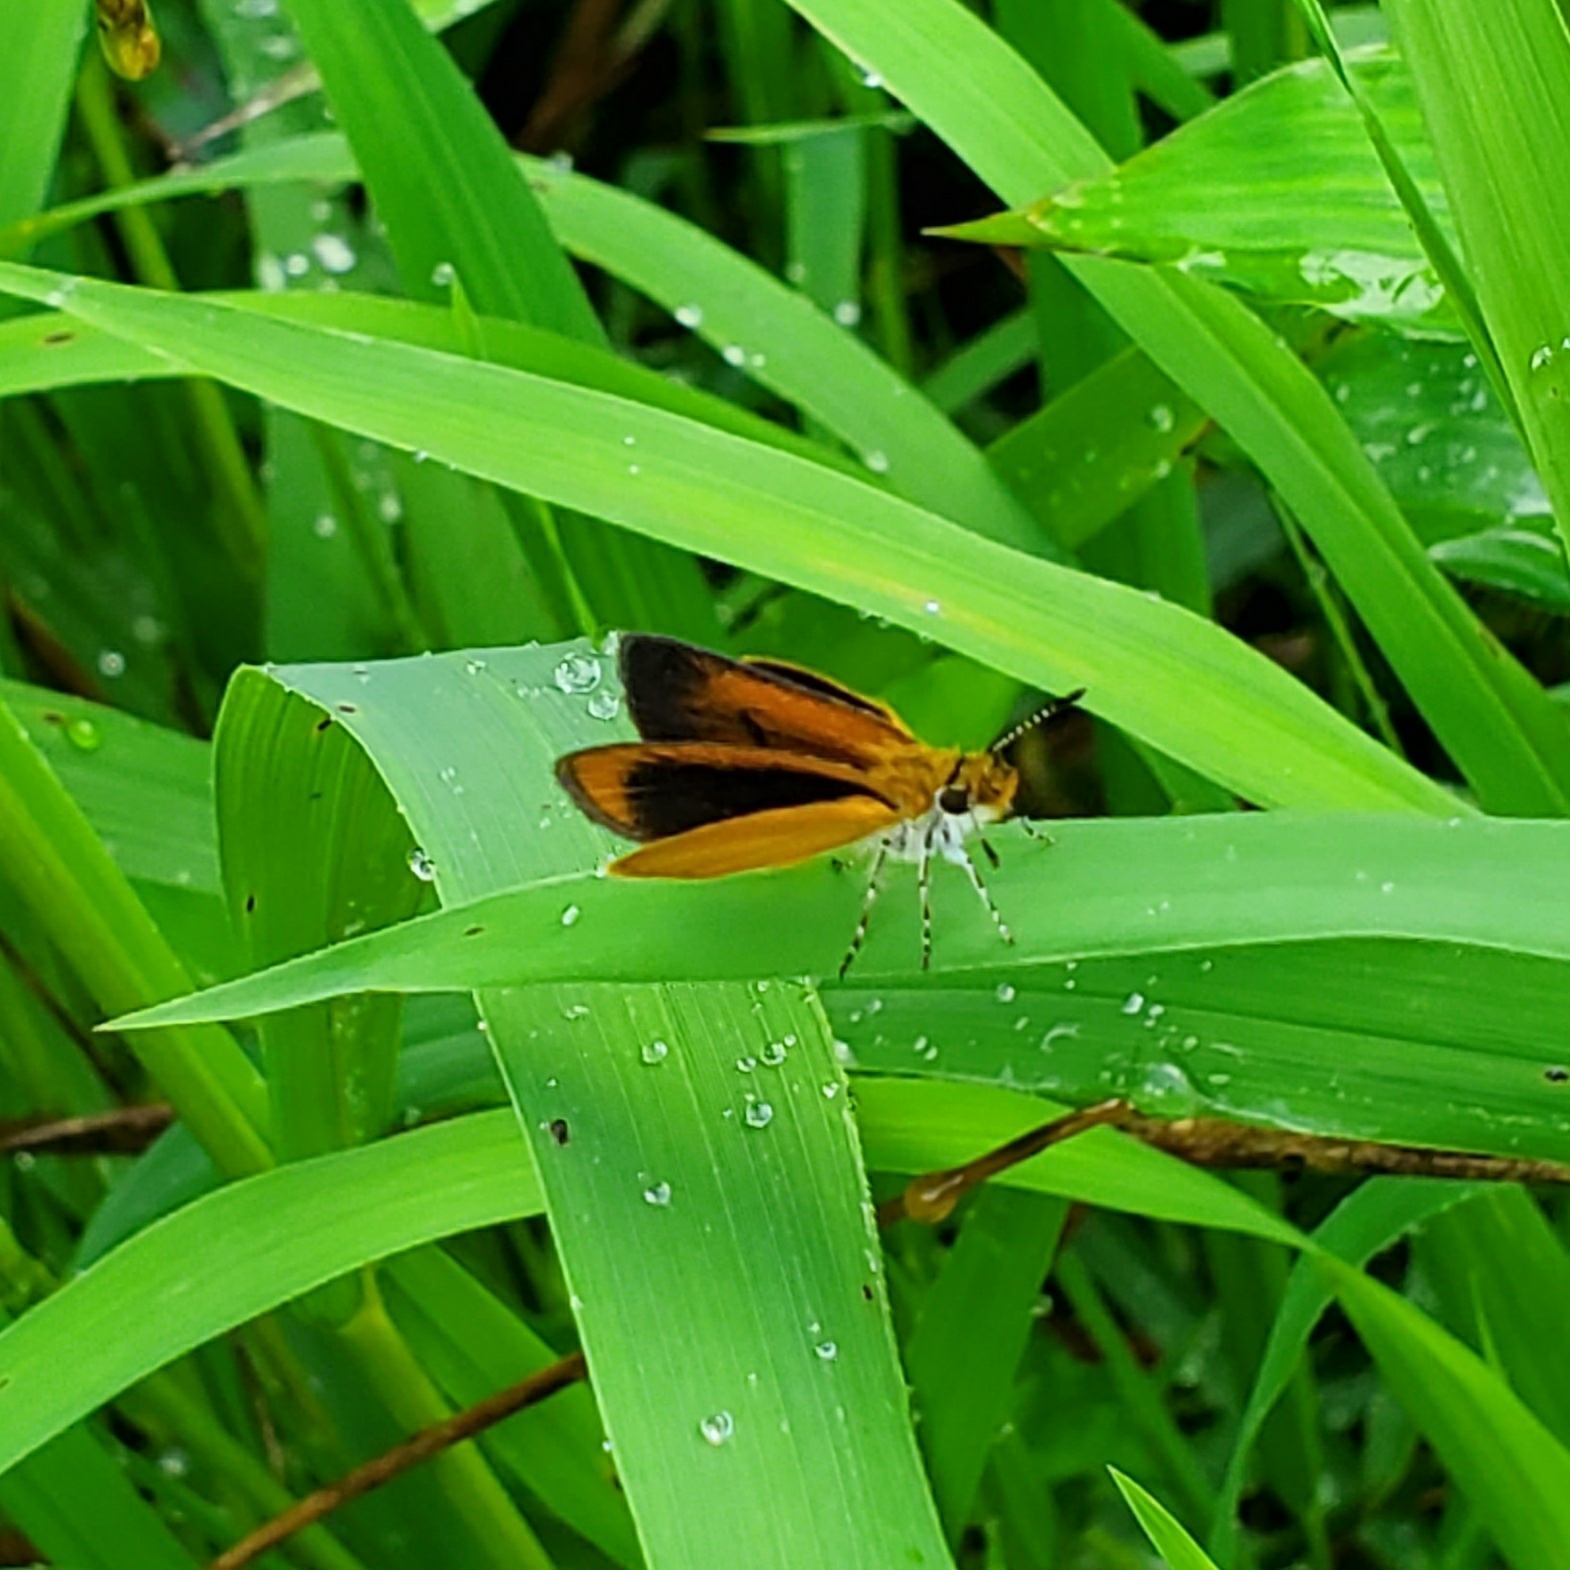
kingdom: Animalia
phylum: Arthropoda
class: Insecta
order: Lepidoptera
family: Hesperiidae
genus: Ancyloxypha
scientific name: Ancyloxypha numitor
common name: Least skipper
